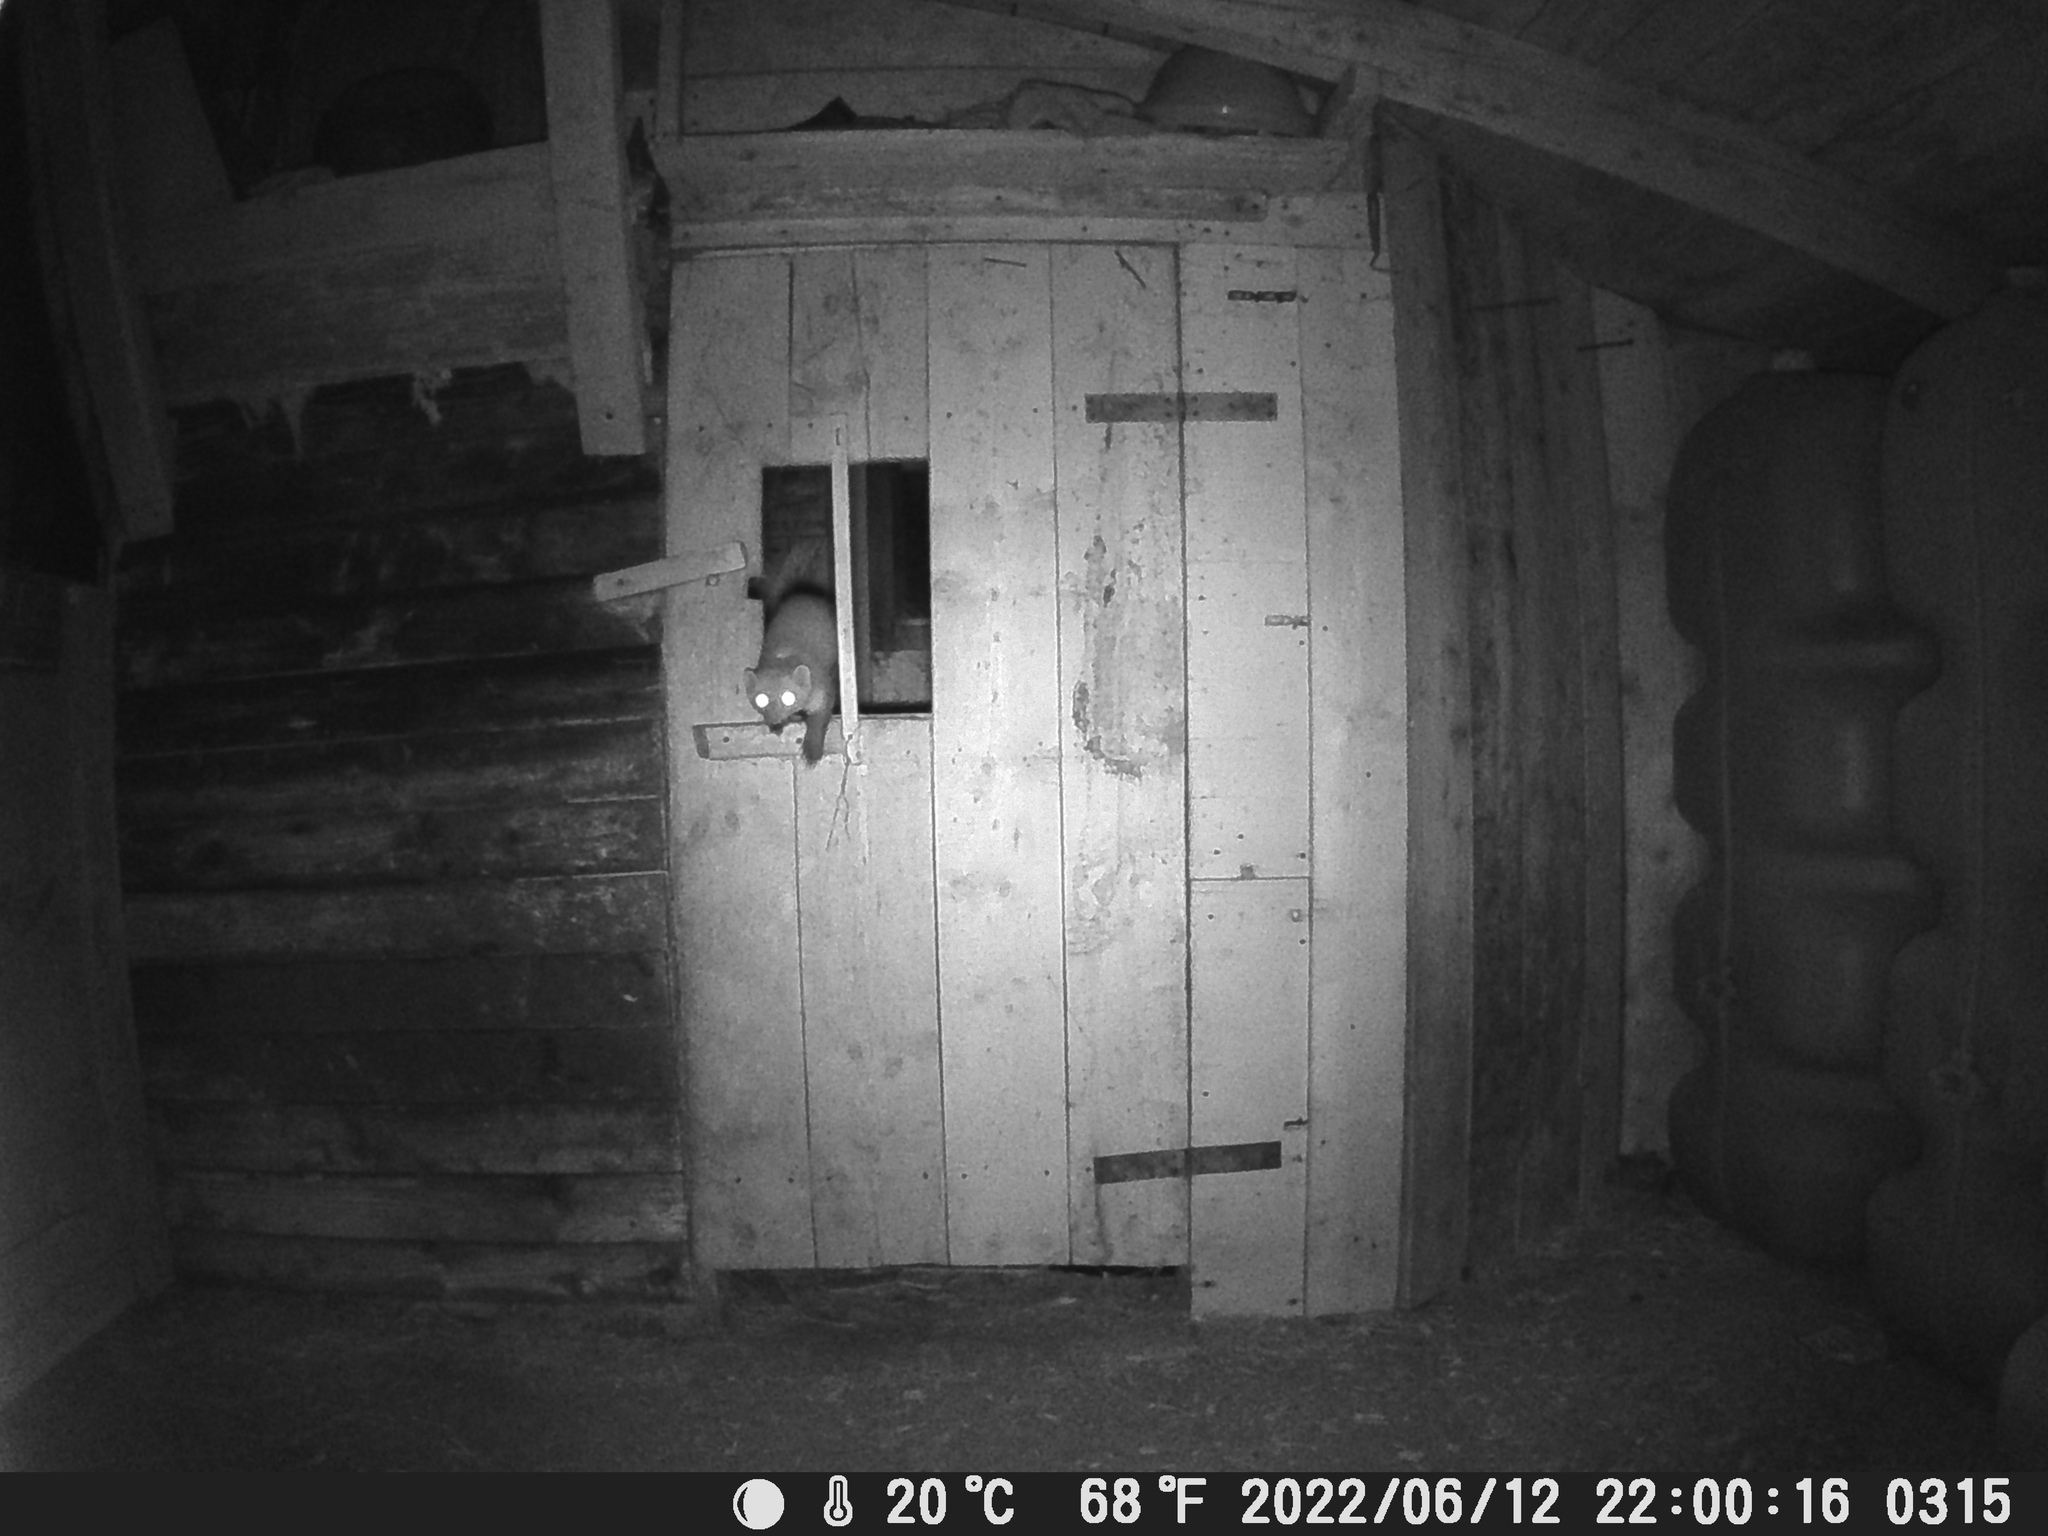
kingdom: Animalia
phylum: Chordata
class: Mammalia
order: Carnivora
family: Mustelidae
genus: Martes
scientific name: Martes foina
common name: Beech marten
